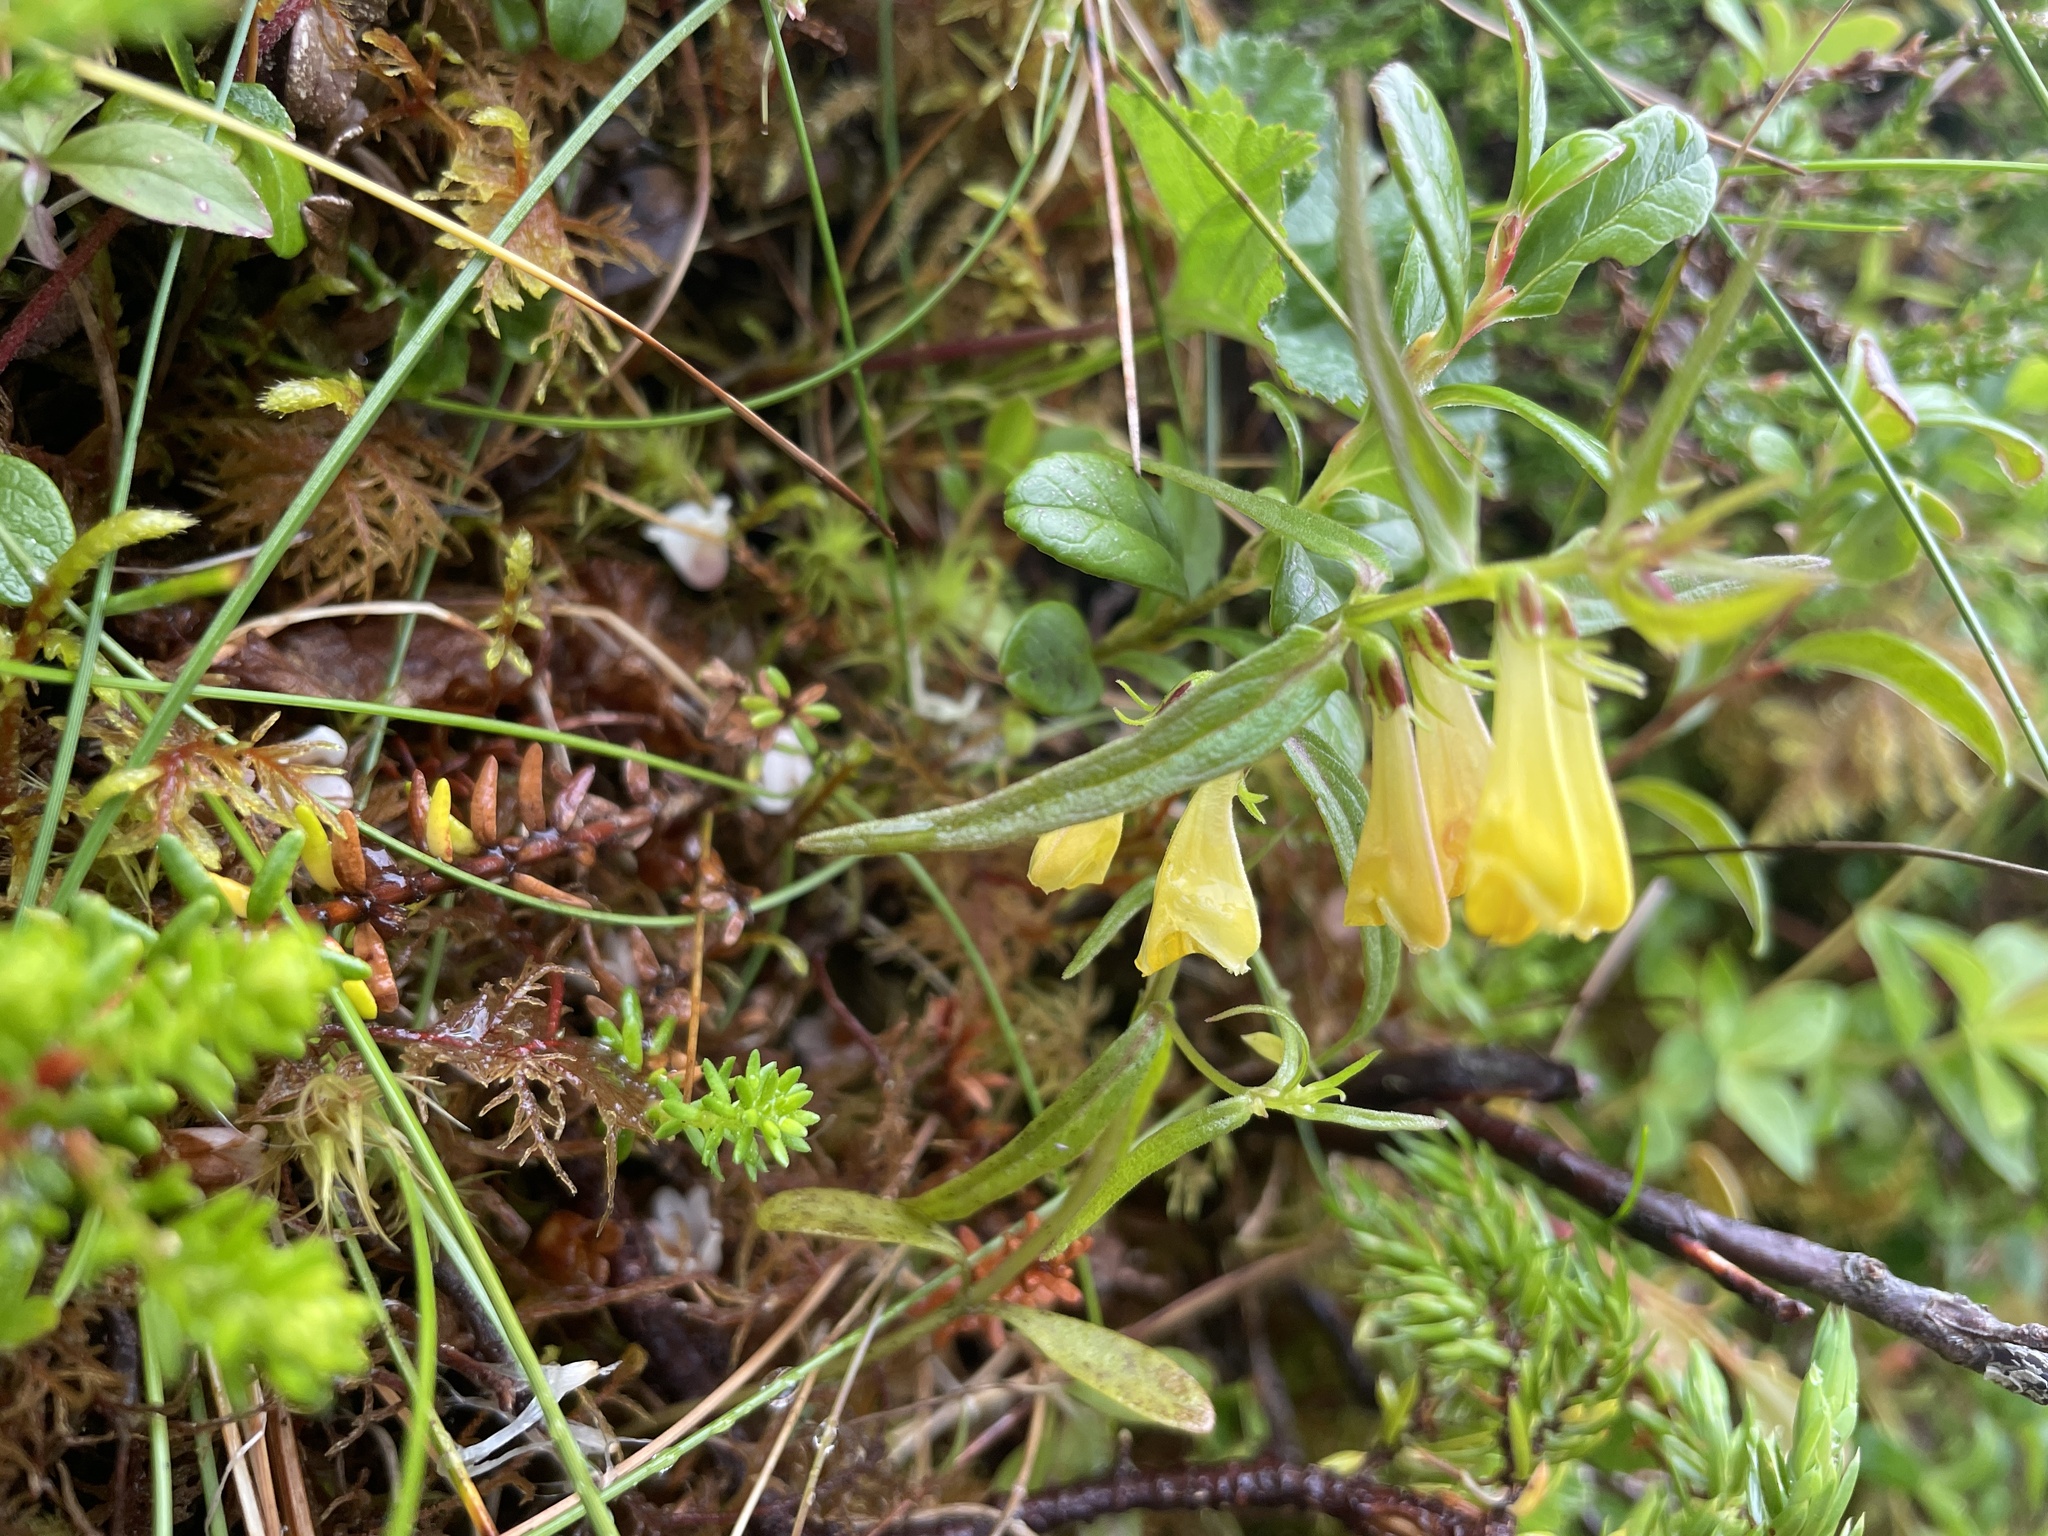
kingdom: Plantae
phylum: Tracheophyta
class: Magnoliopsida
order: Lamiales
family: Orobanchaceae
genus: Melampyrum
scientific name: Melampyrum pratense
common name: Common cow-wheat
